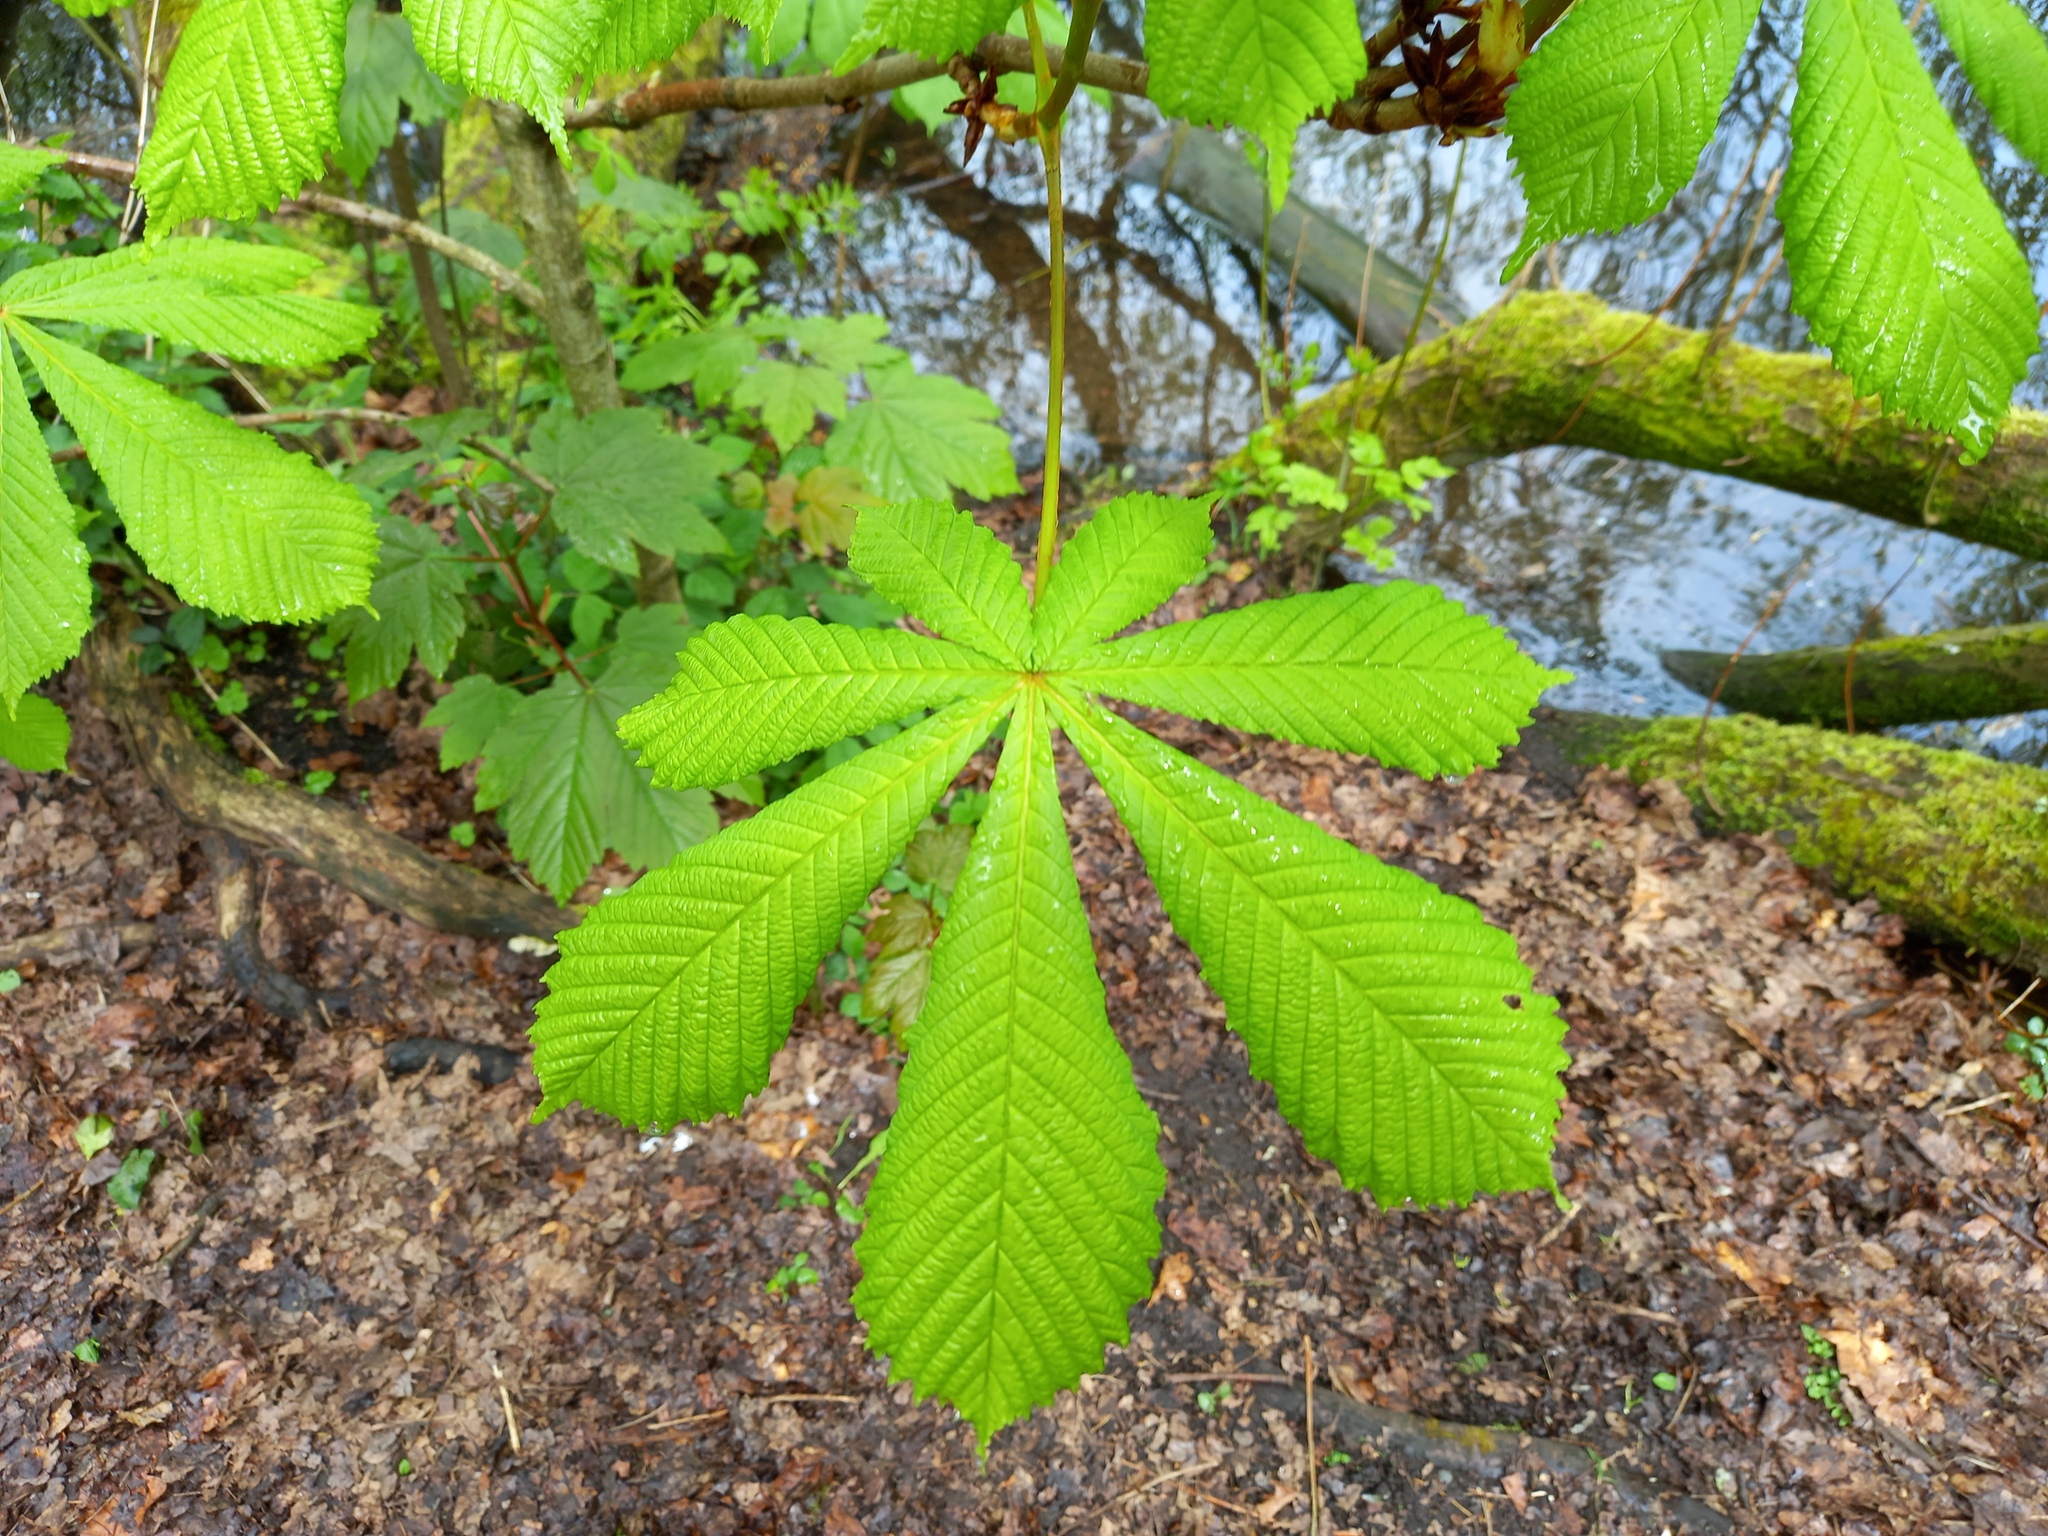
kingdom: Plantae
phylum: Tracheophyta
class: Magnoliopsida
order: Sapindales
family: Sapindaceae
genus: Aesculus
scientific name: Aesculus hippocastanum
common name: Horse-chestnut
